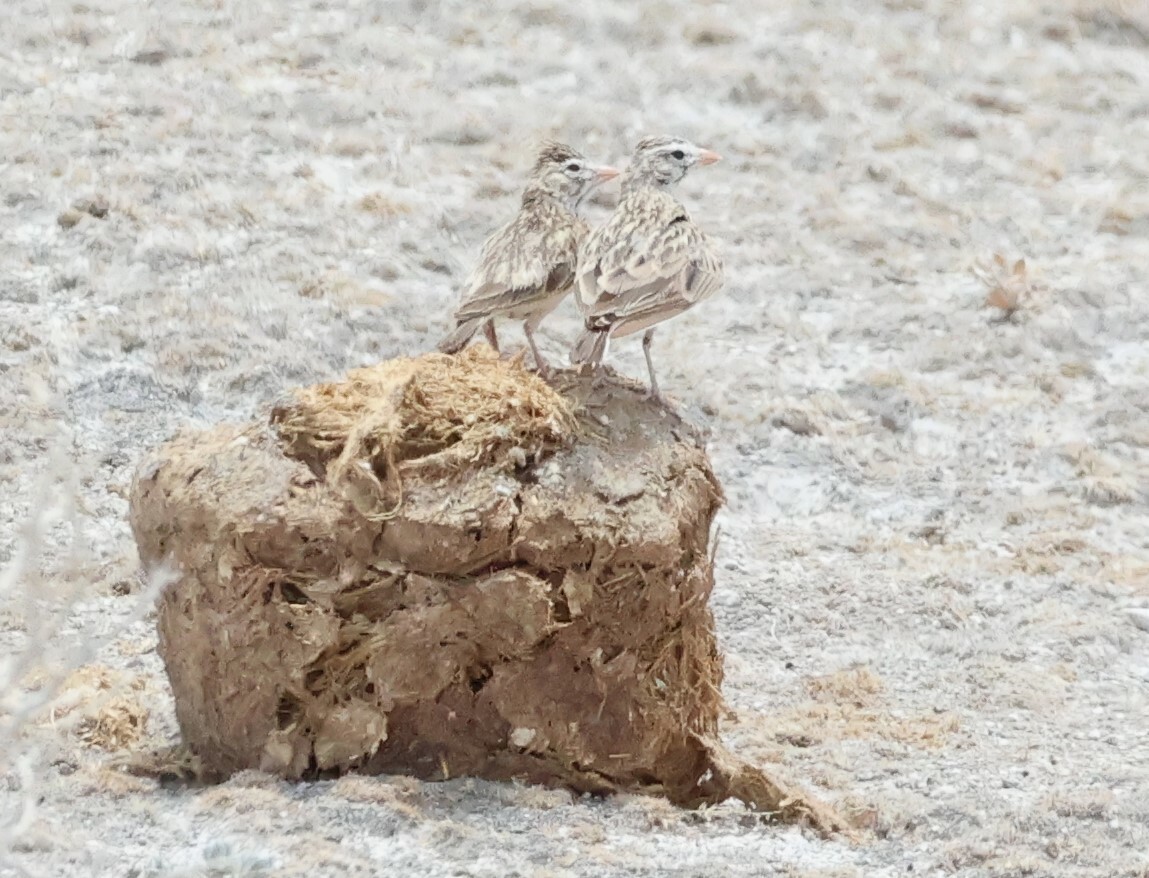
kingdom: Animalia
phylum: Chordata
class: Aves
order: Passeriformes
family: Alaudidae
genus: Spizocorys
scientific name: Spizocorys starki
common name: Stark's lark
